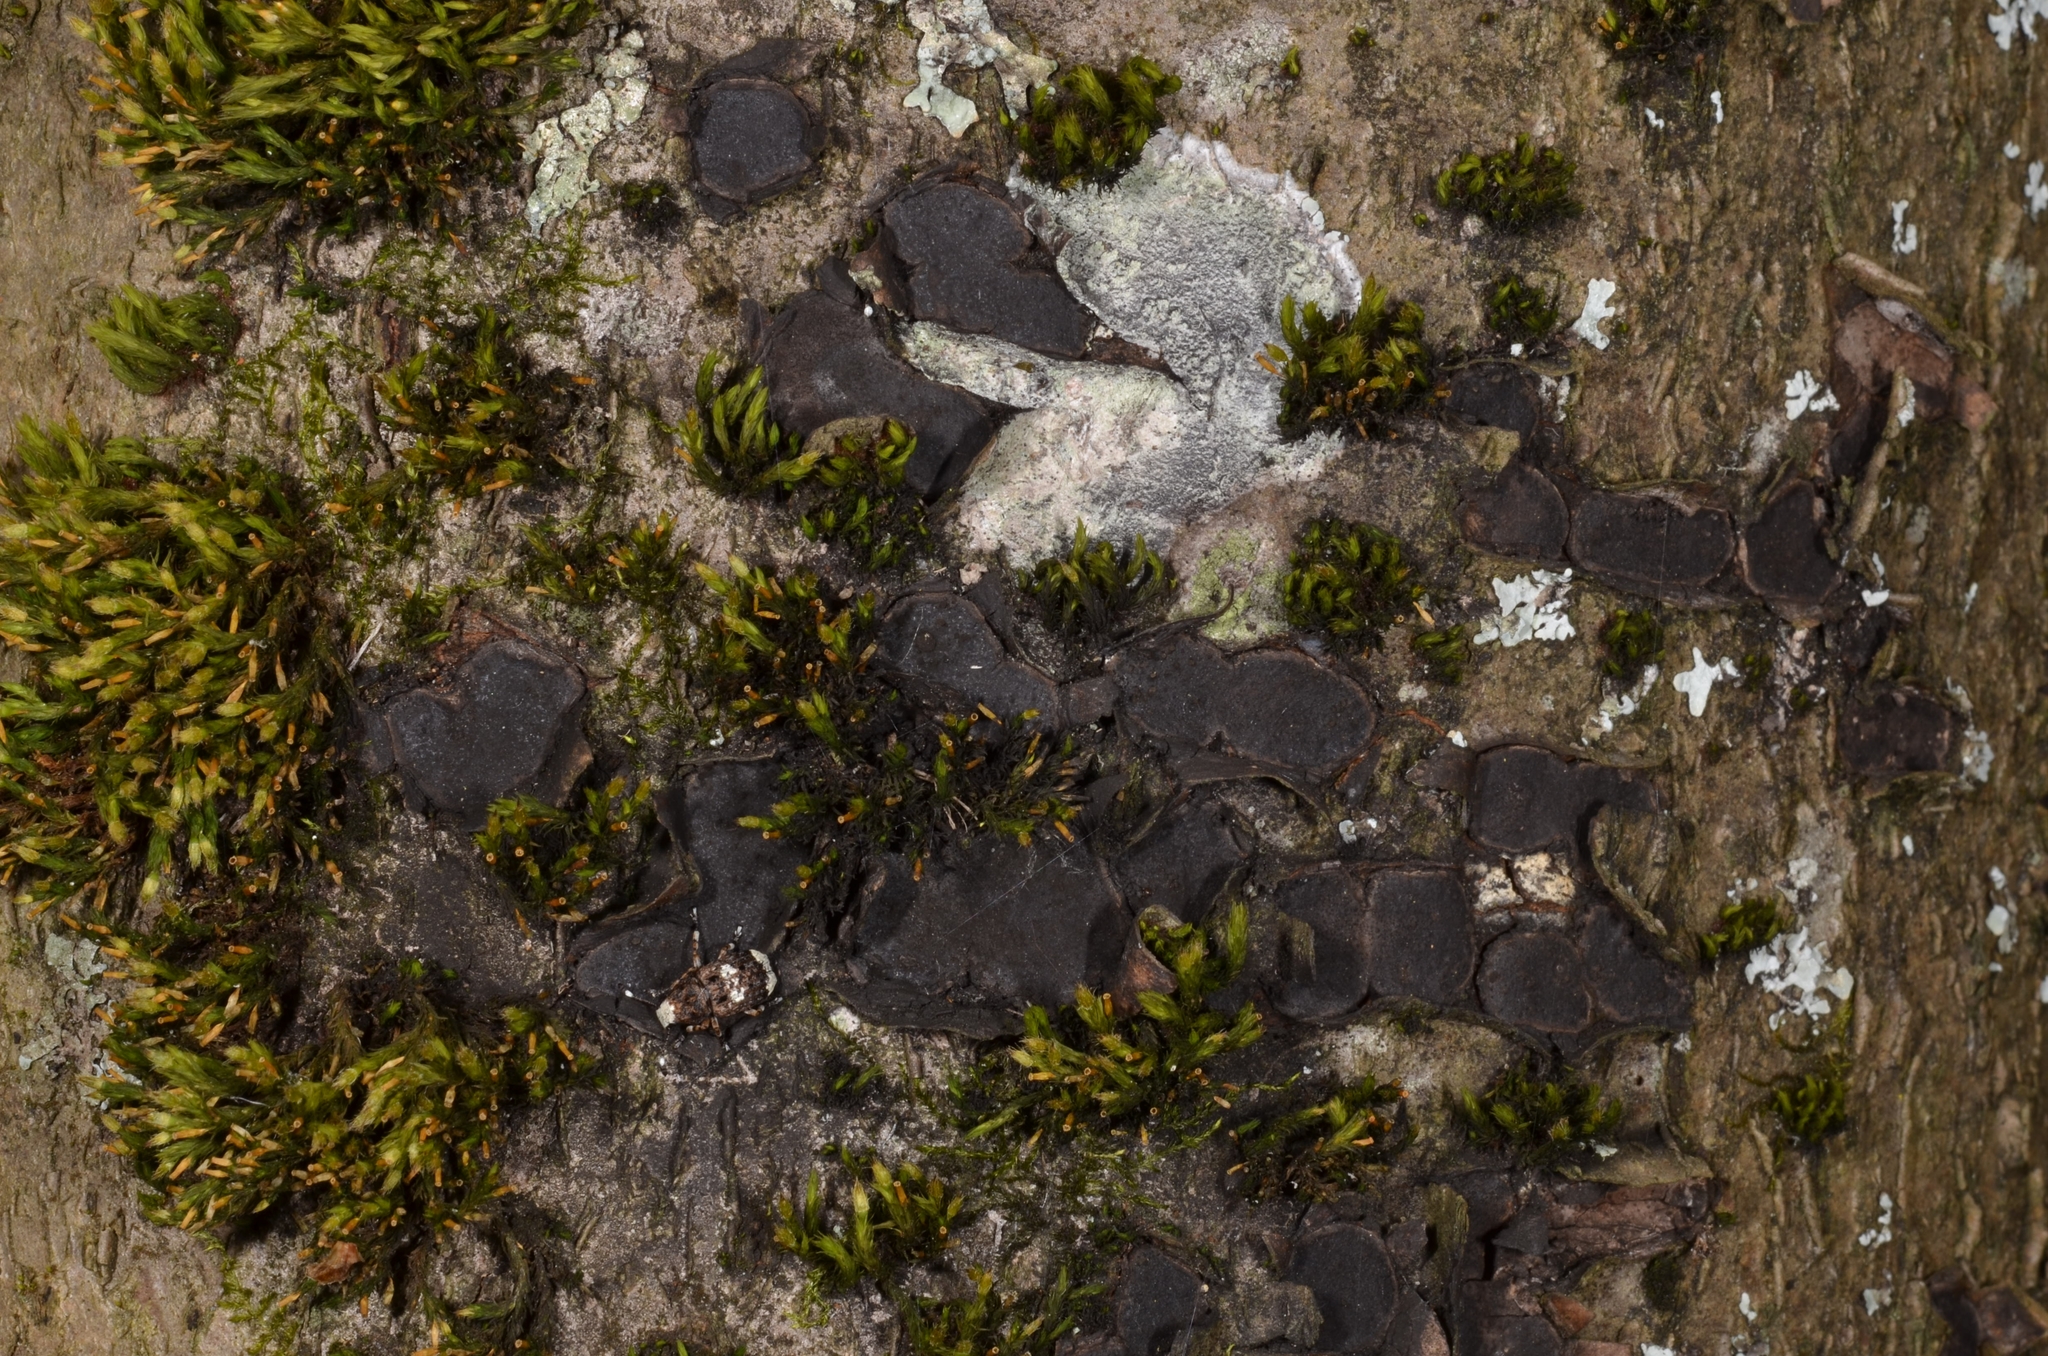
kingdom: Fungi
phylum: Ascomycota
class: Sordariomycetes
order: Xylariales
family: Graphostromataceae
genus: Biscogniauxia
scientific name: Biscogniauxia granmoi
